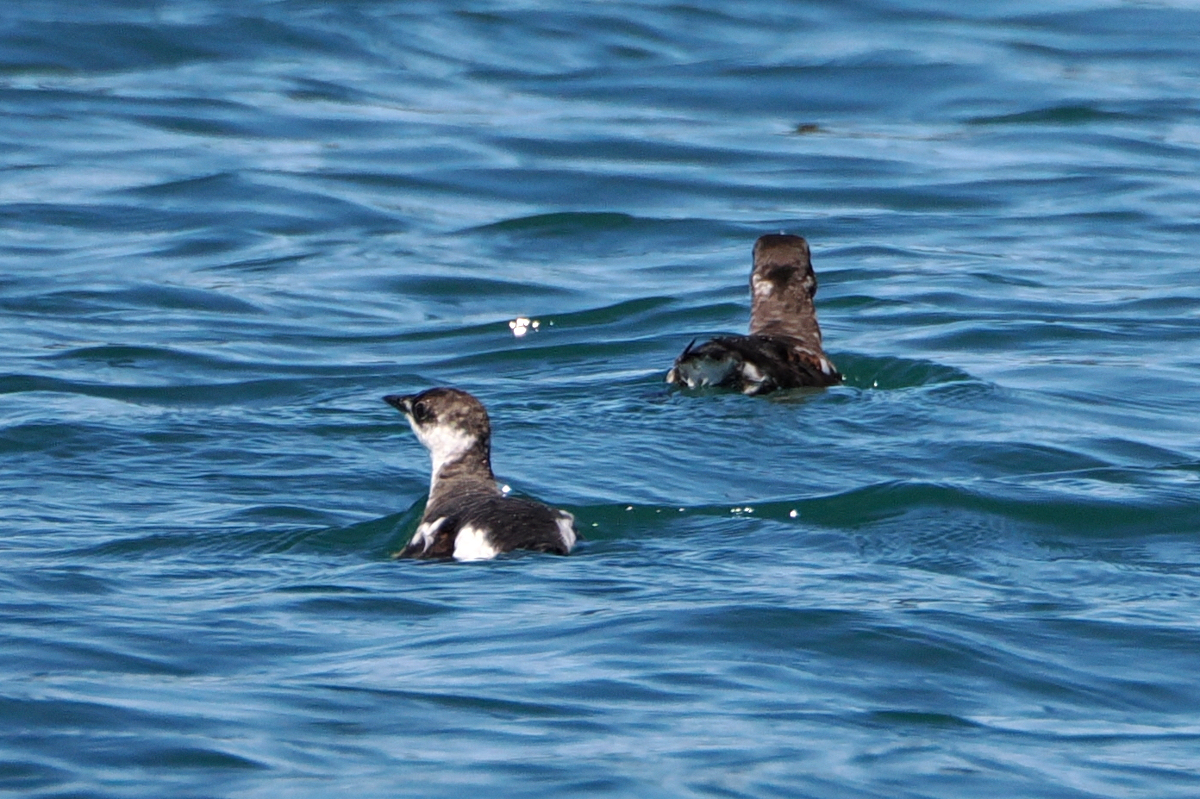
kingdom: Animalia
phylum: Chordata
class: Aves
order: Charadriiformes
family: Alcidae
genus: Brachyramphus
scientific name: Brachyramphus marmoratus
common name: Marbled murrelet
